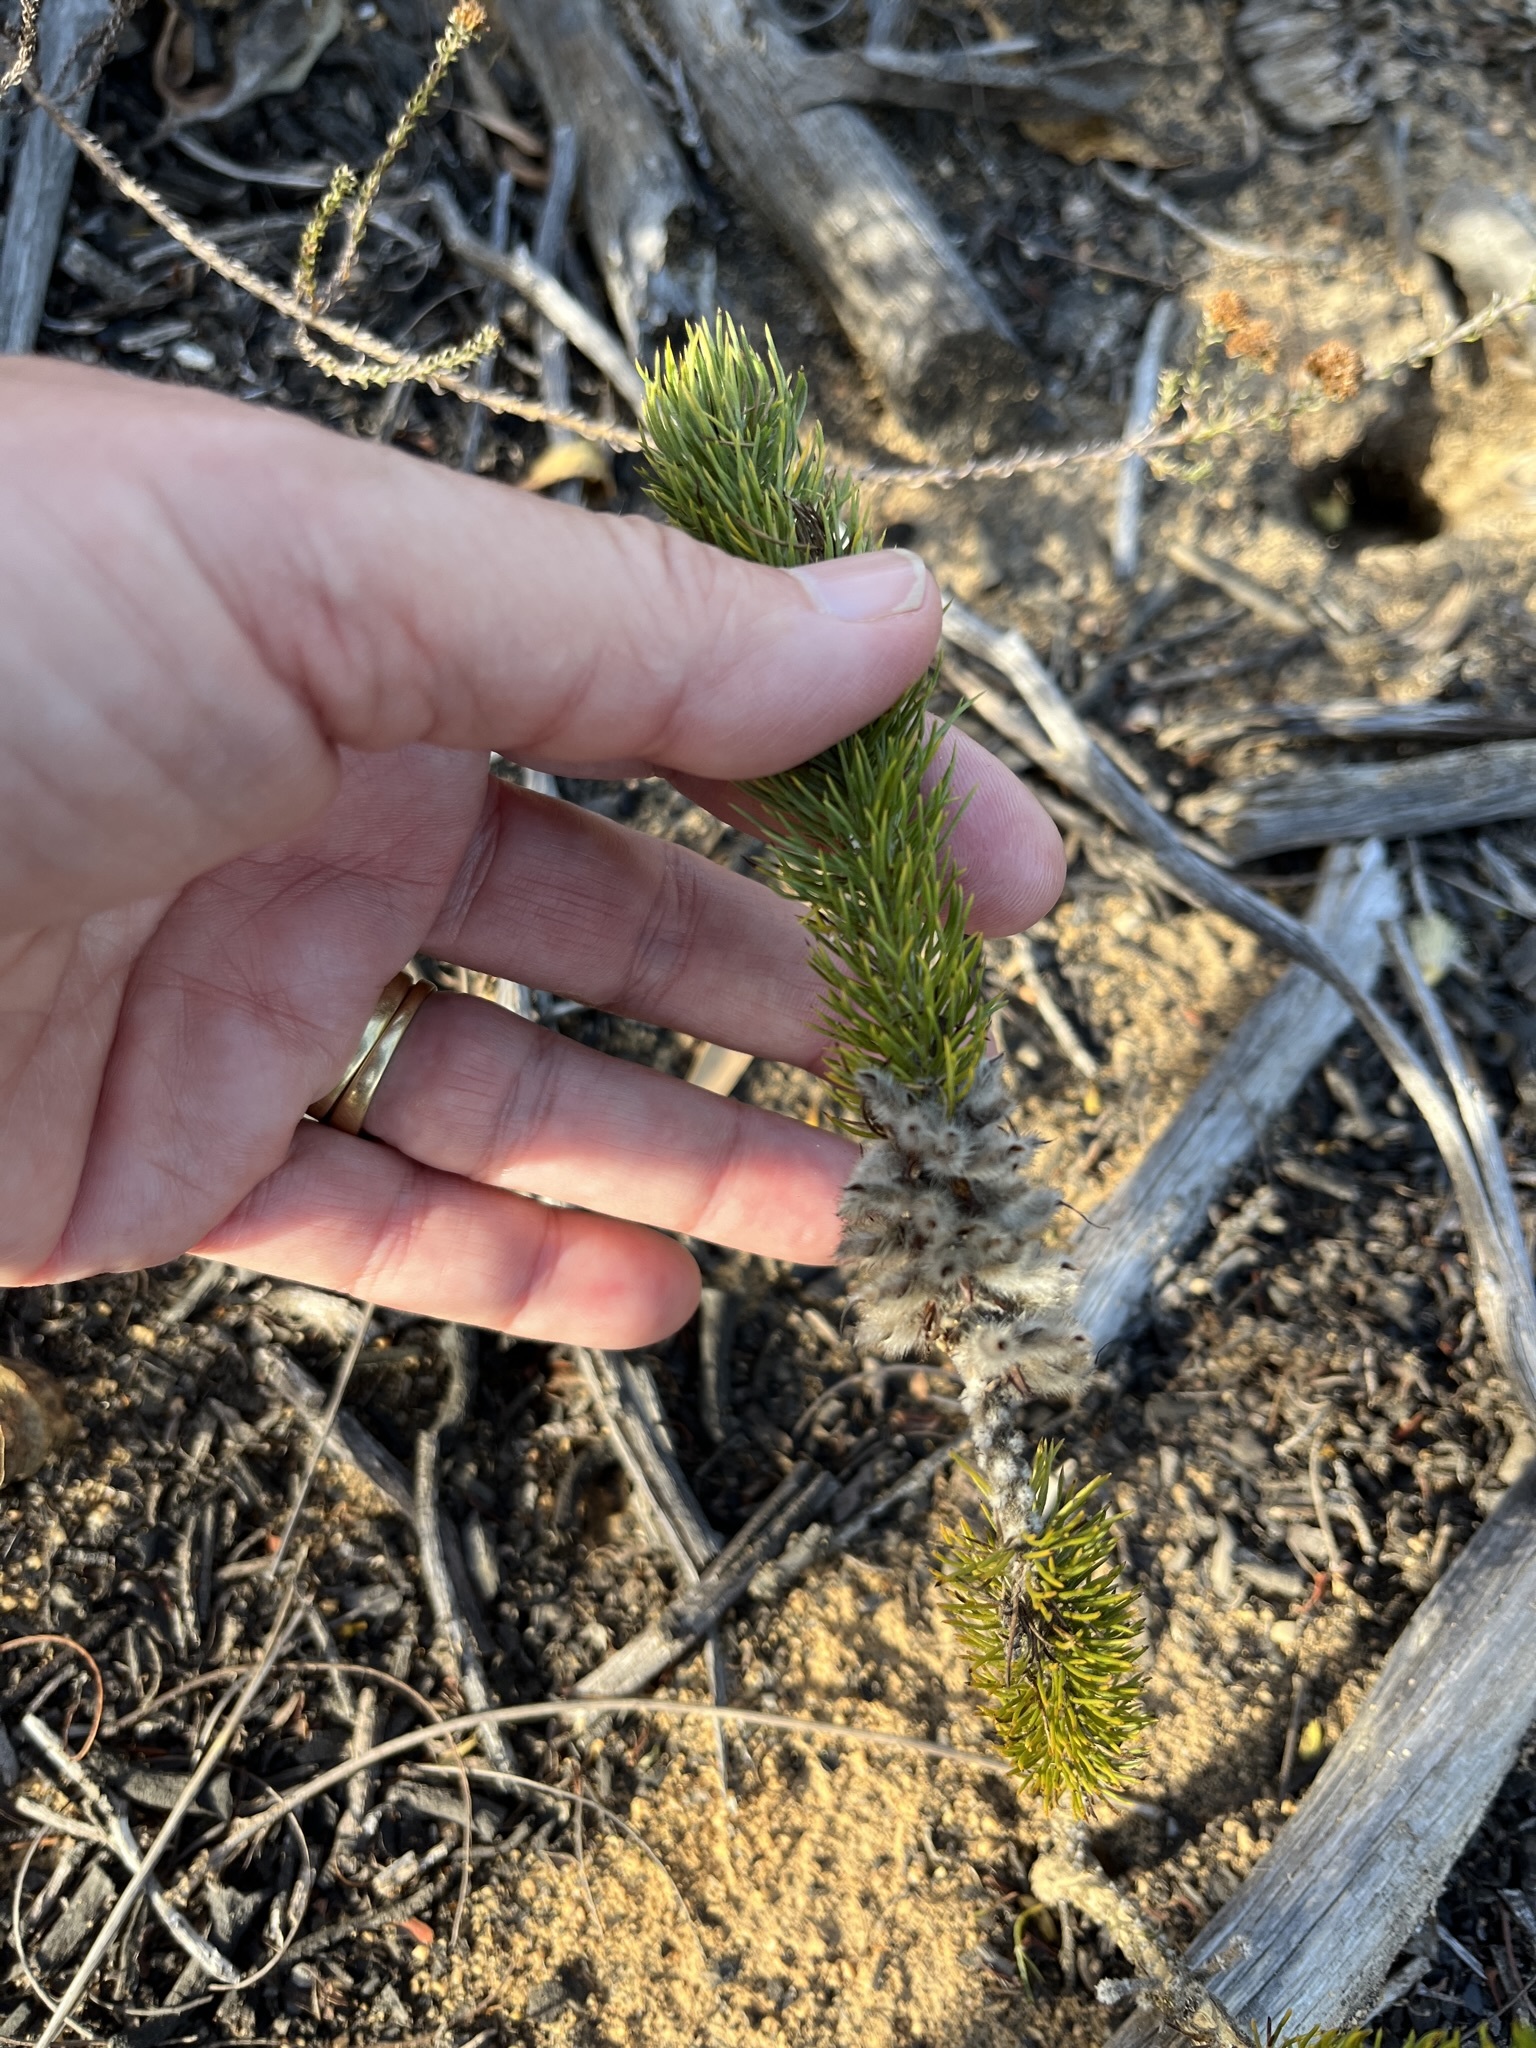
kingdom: Plantae
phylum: Tracheophyta
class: Magnoliopsida
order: Fabales
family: Fabaceae
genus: Aspalathus
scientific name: Aspalathus alopecurus
